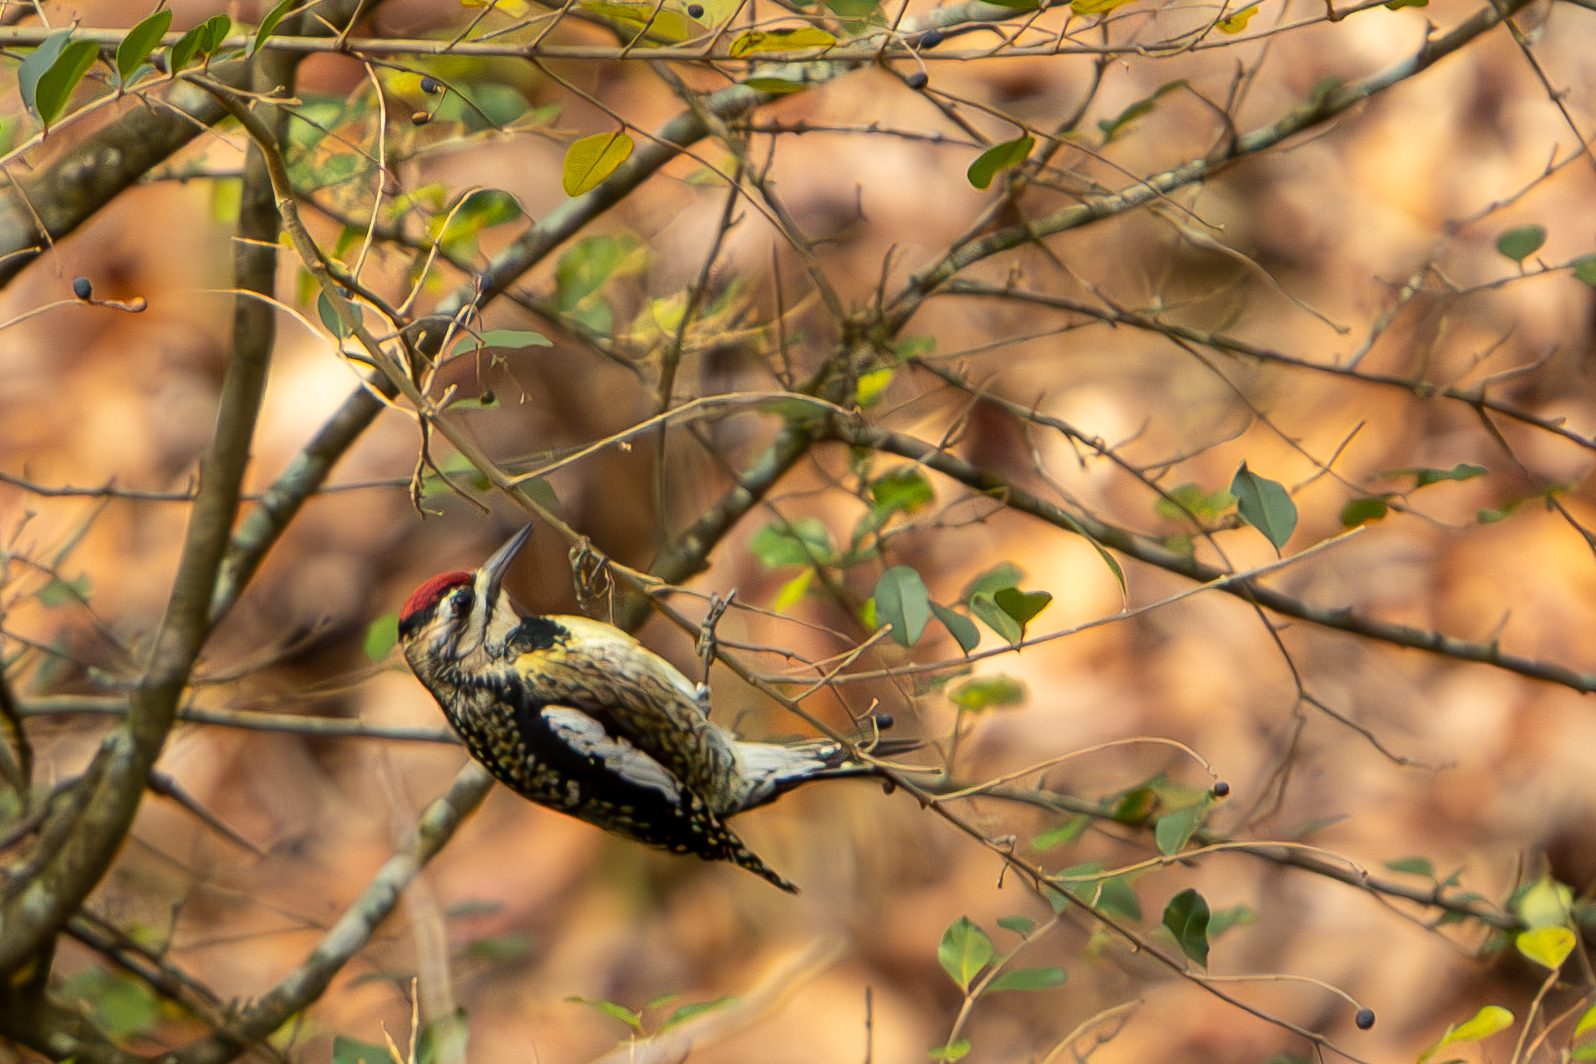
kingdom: Animalia
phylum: Chordata
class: Aves
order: Piciformes
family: Picidae
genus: Sphyrapicus
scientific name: Sphyrapicus varius
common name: Yellow-bellied sapsucker
